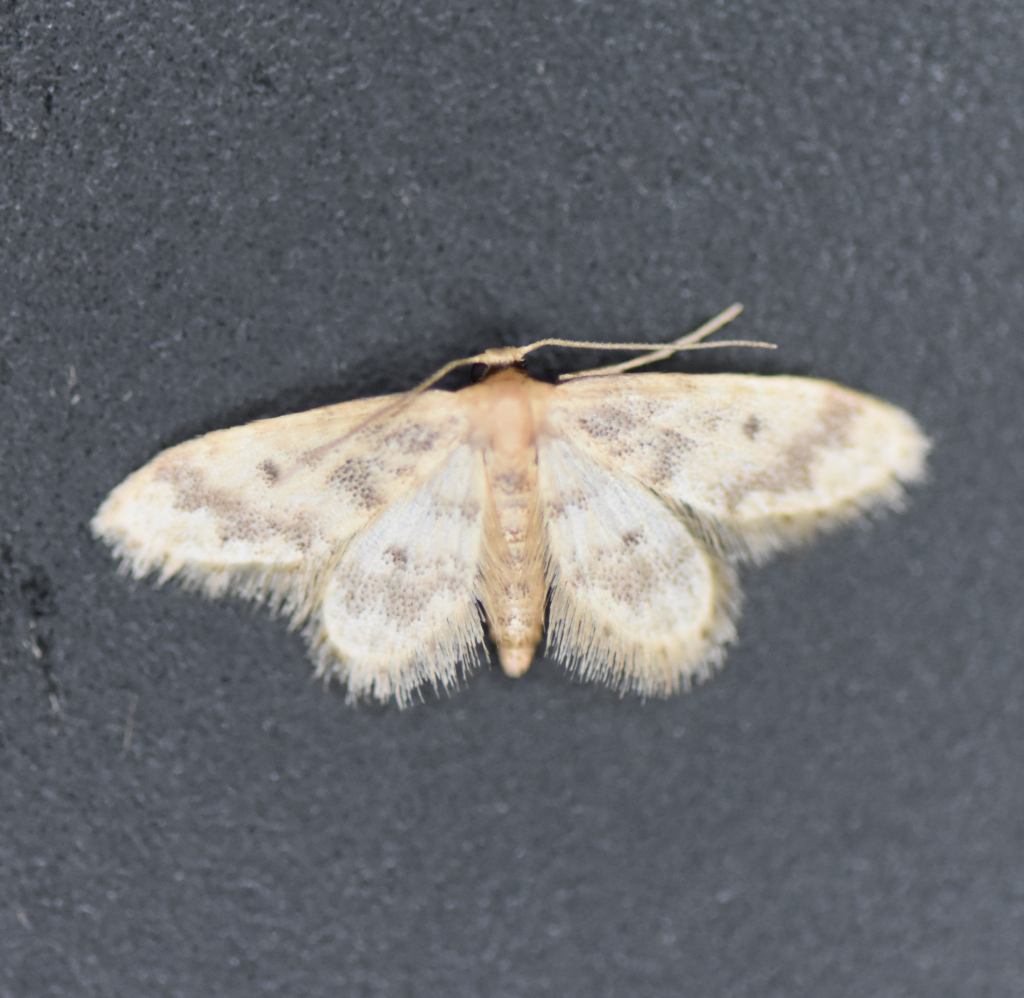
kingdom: Animalia
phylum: Arthropoda
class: Insecta
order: Lepidoptera
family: Geometridae
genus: Idaea
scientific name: Idaea bonifata
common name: Fortunate wave
